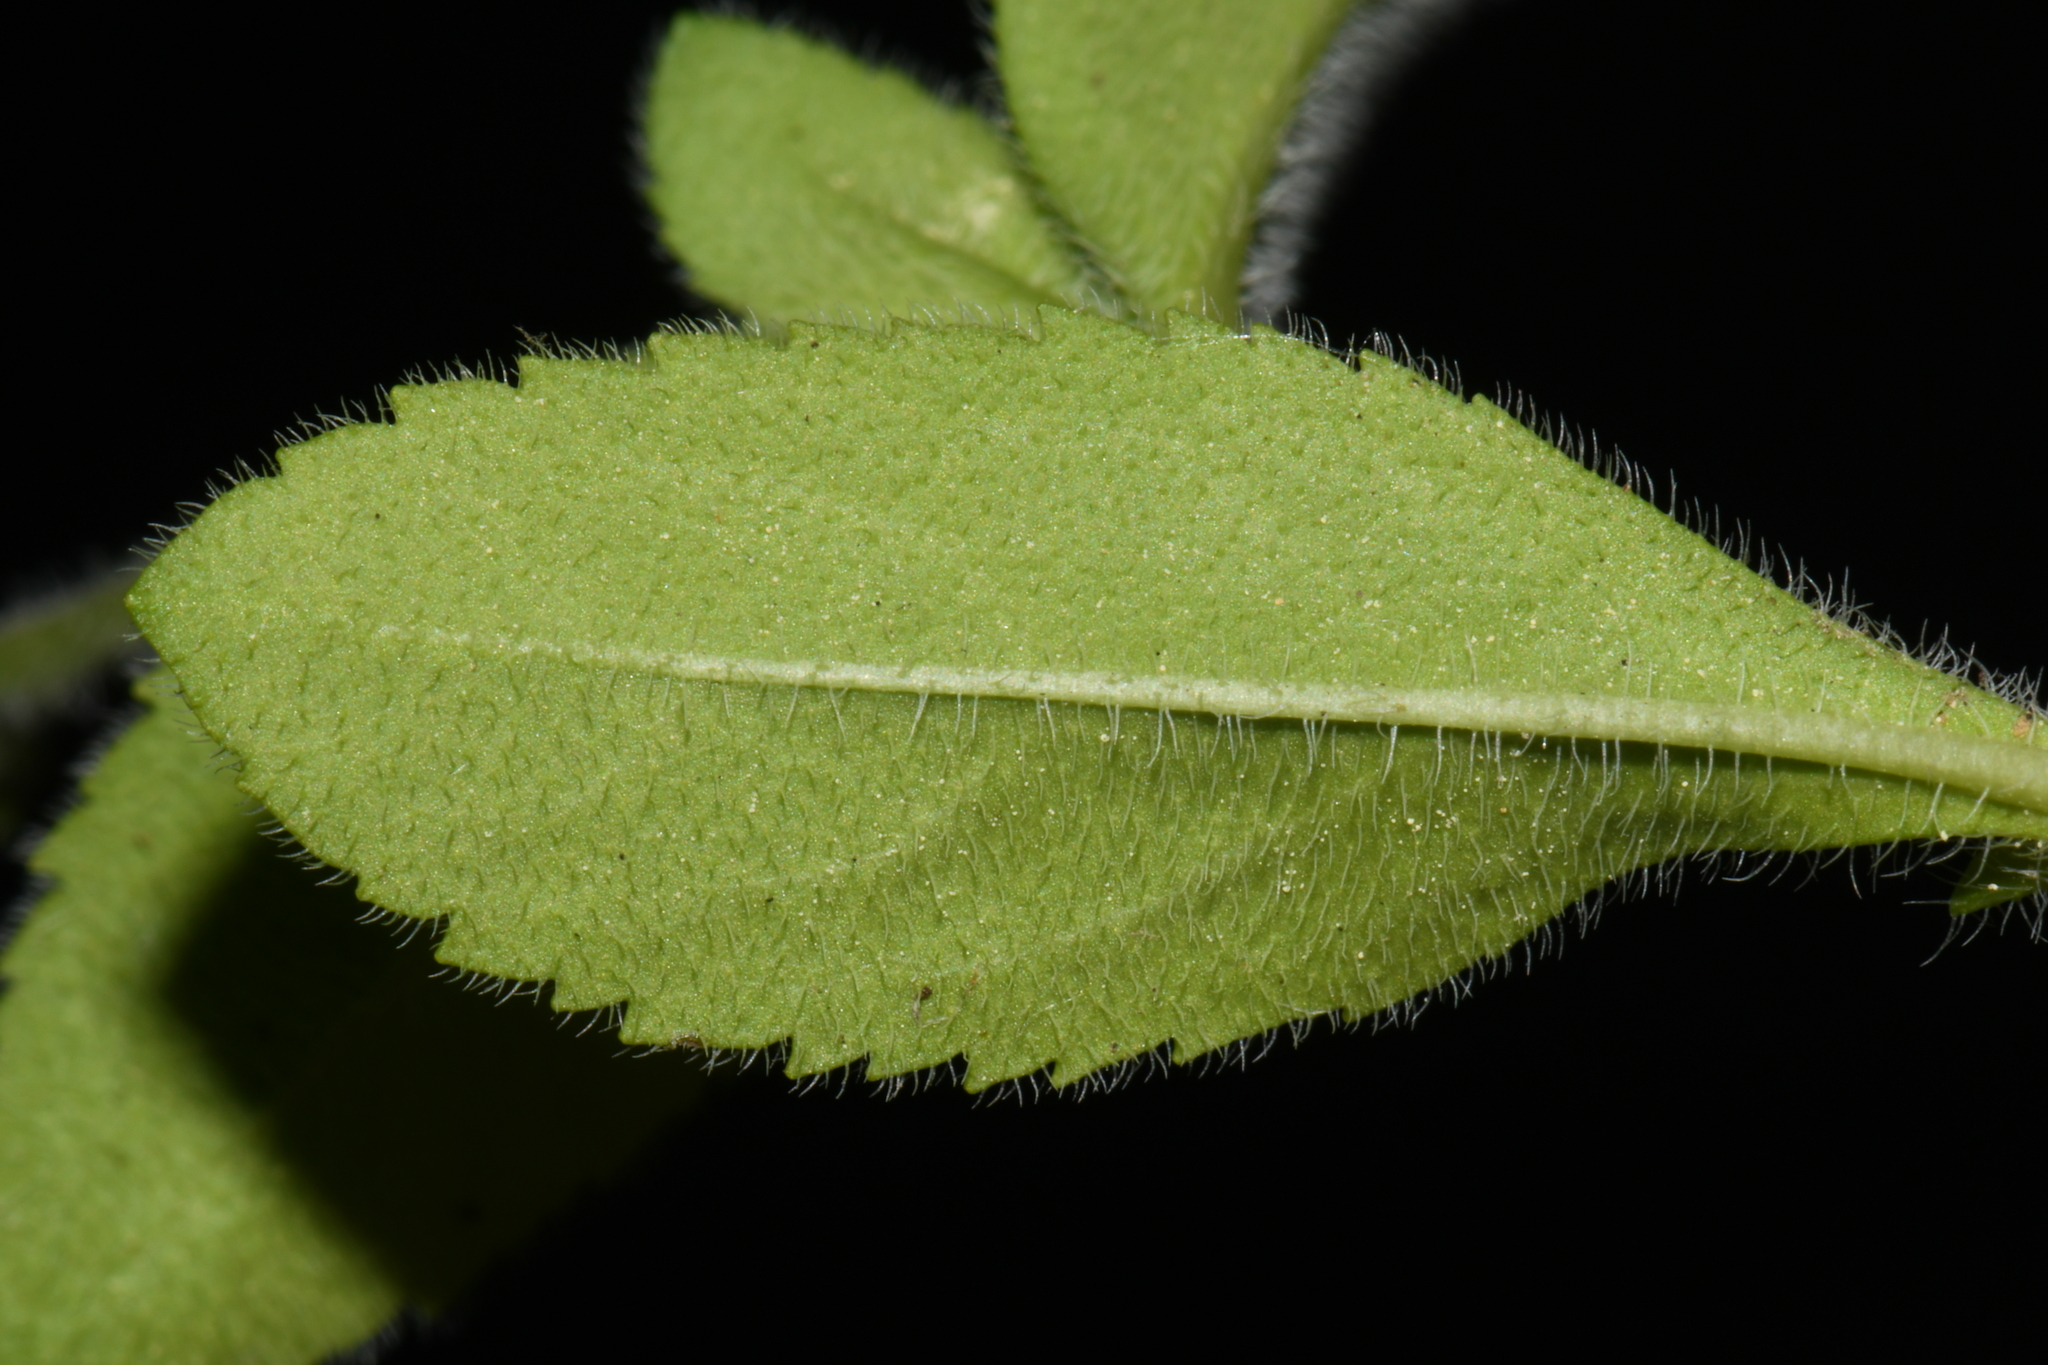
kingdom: Plantae
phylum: Tracheophyta
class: Magnoliopsida
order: Lamiales
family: Plantaginaceae
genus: Veronica
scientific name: Veronica officinalis
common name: Common speedwell
